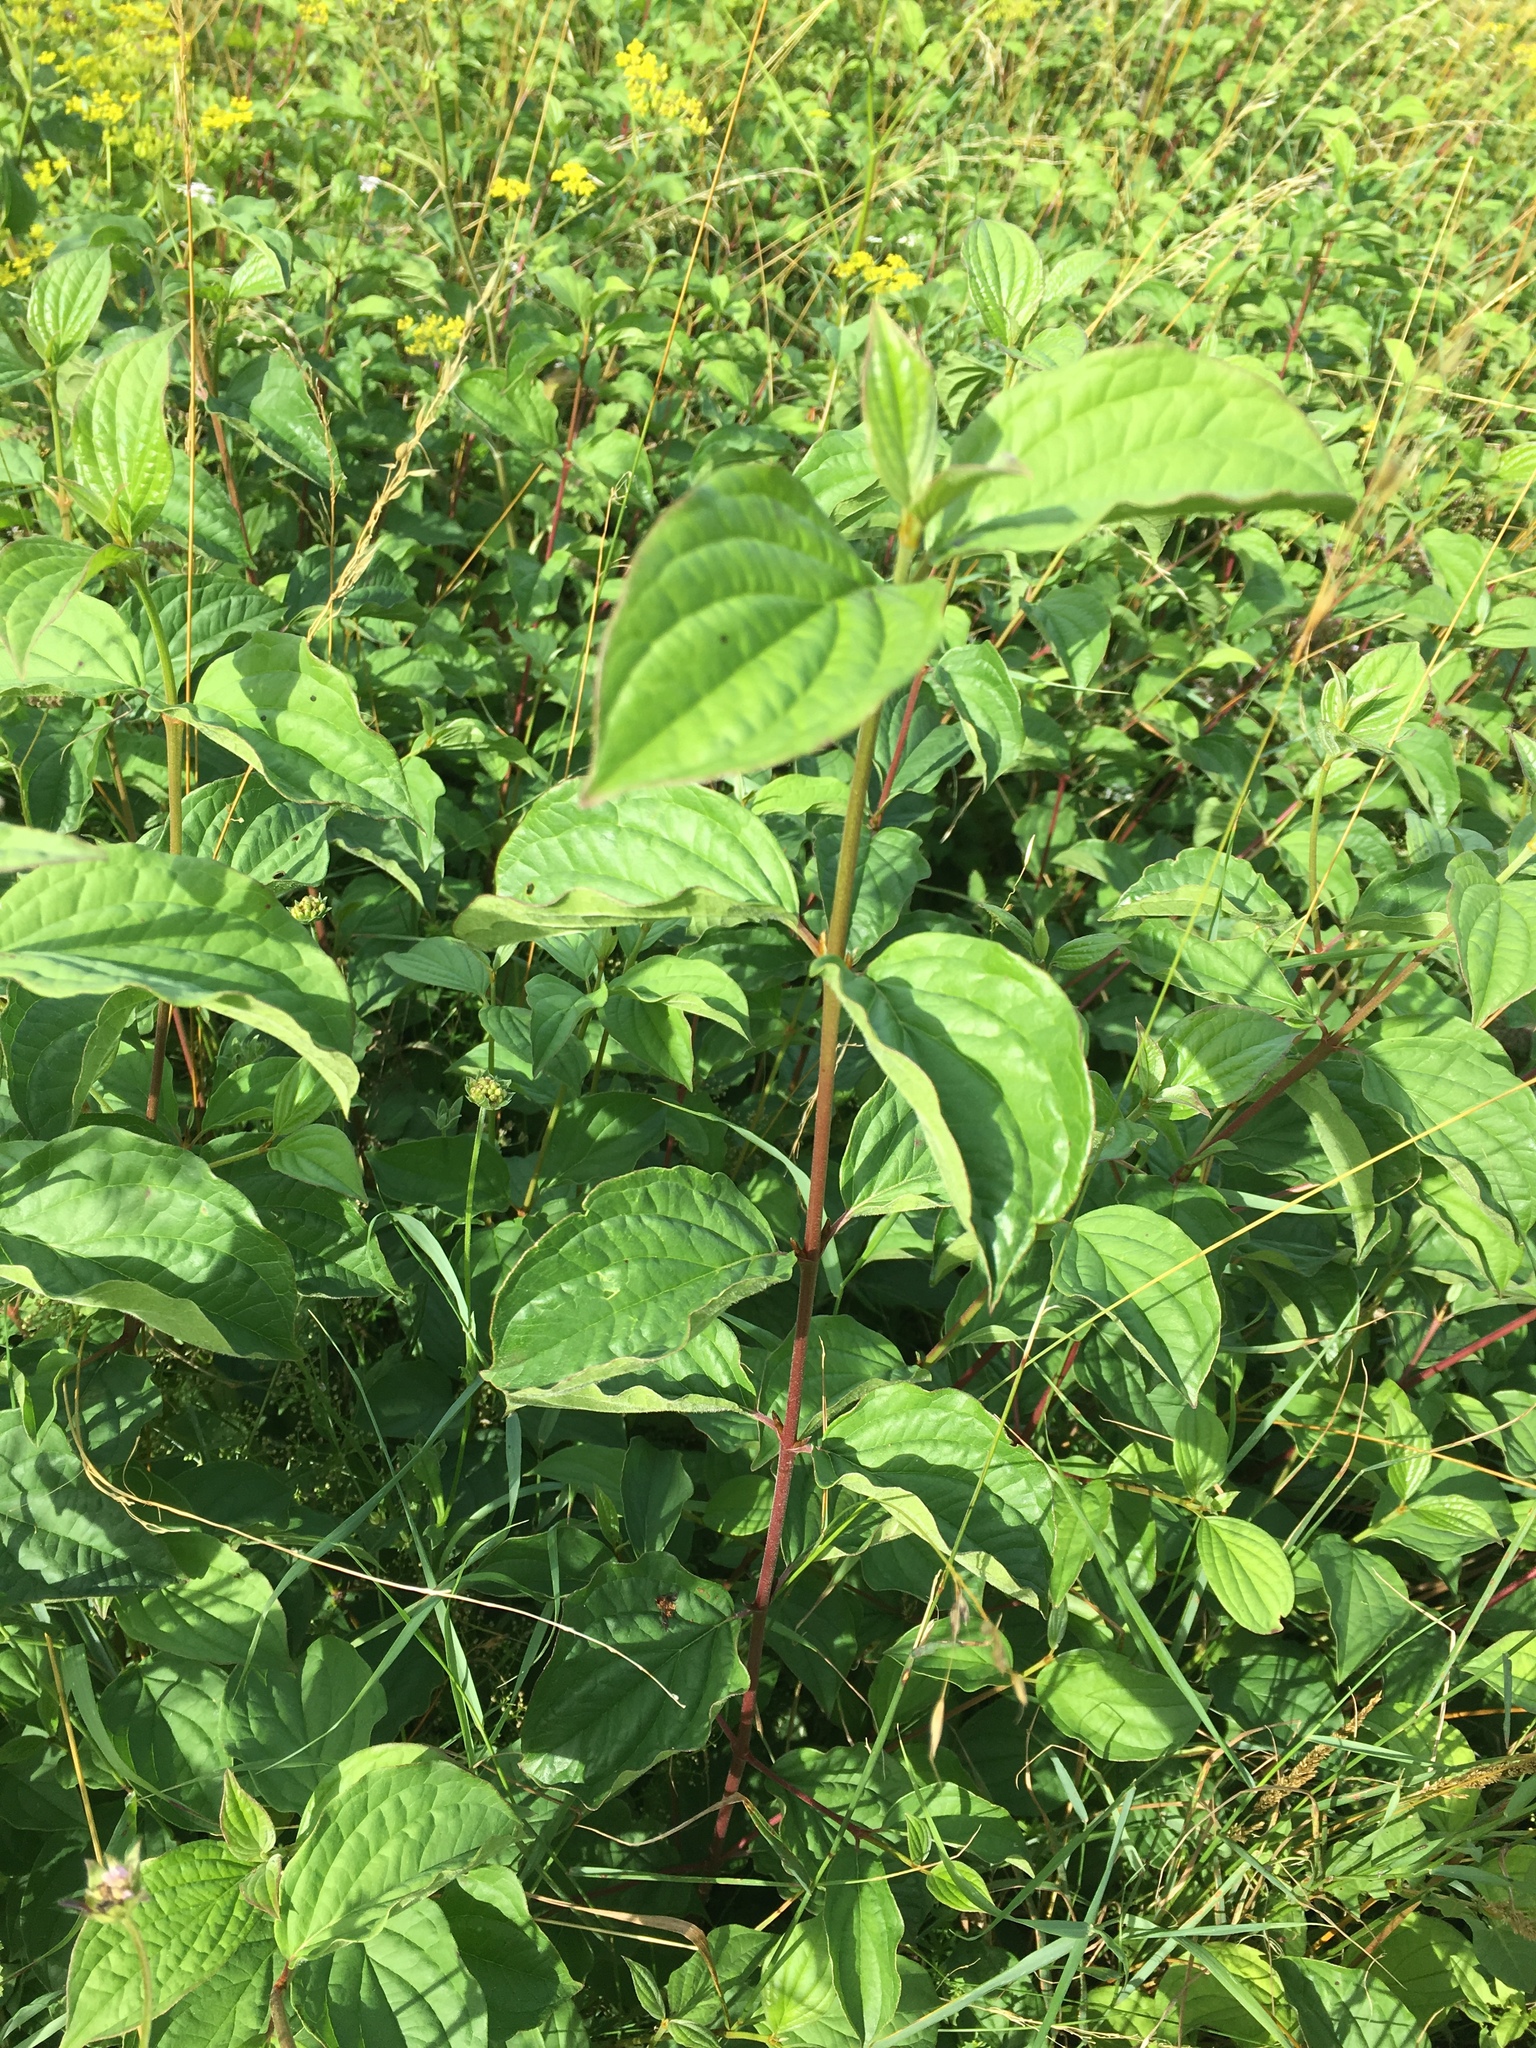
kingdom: Plantae
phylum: Tracheophyta
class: Magnoliopsida
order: Cornales
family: Cornaceae
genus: Cornus
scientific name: Cornus sanguinea
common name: Dogwood
